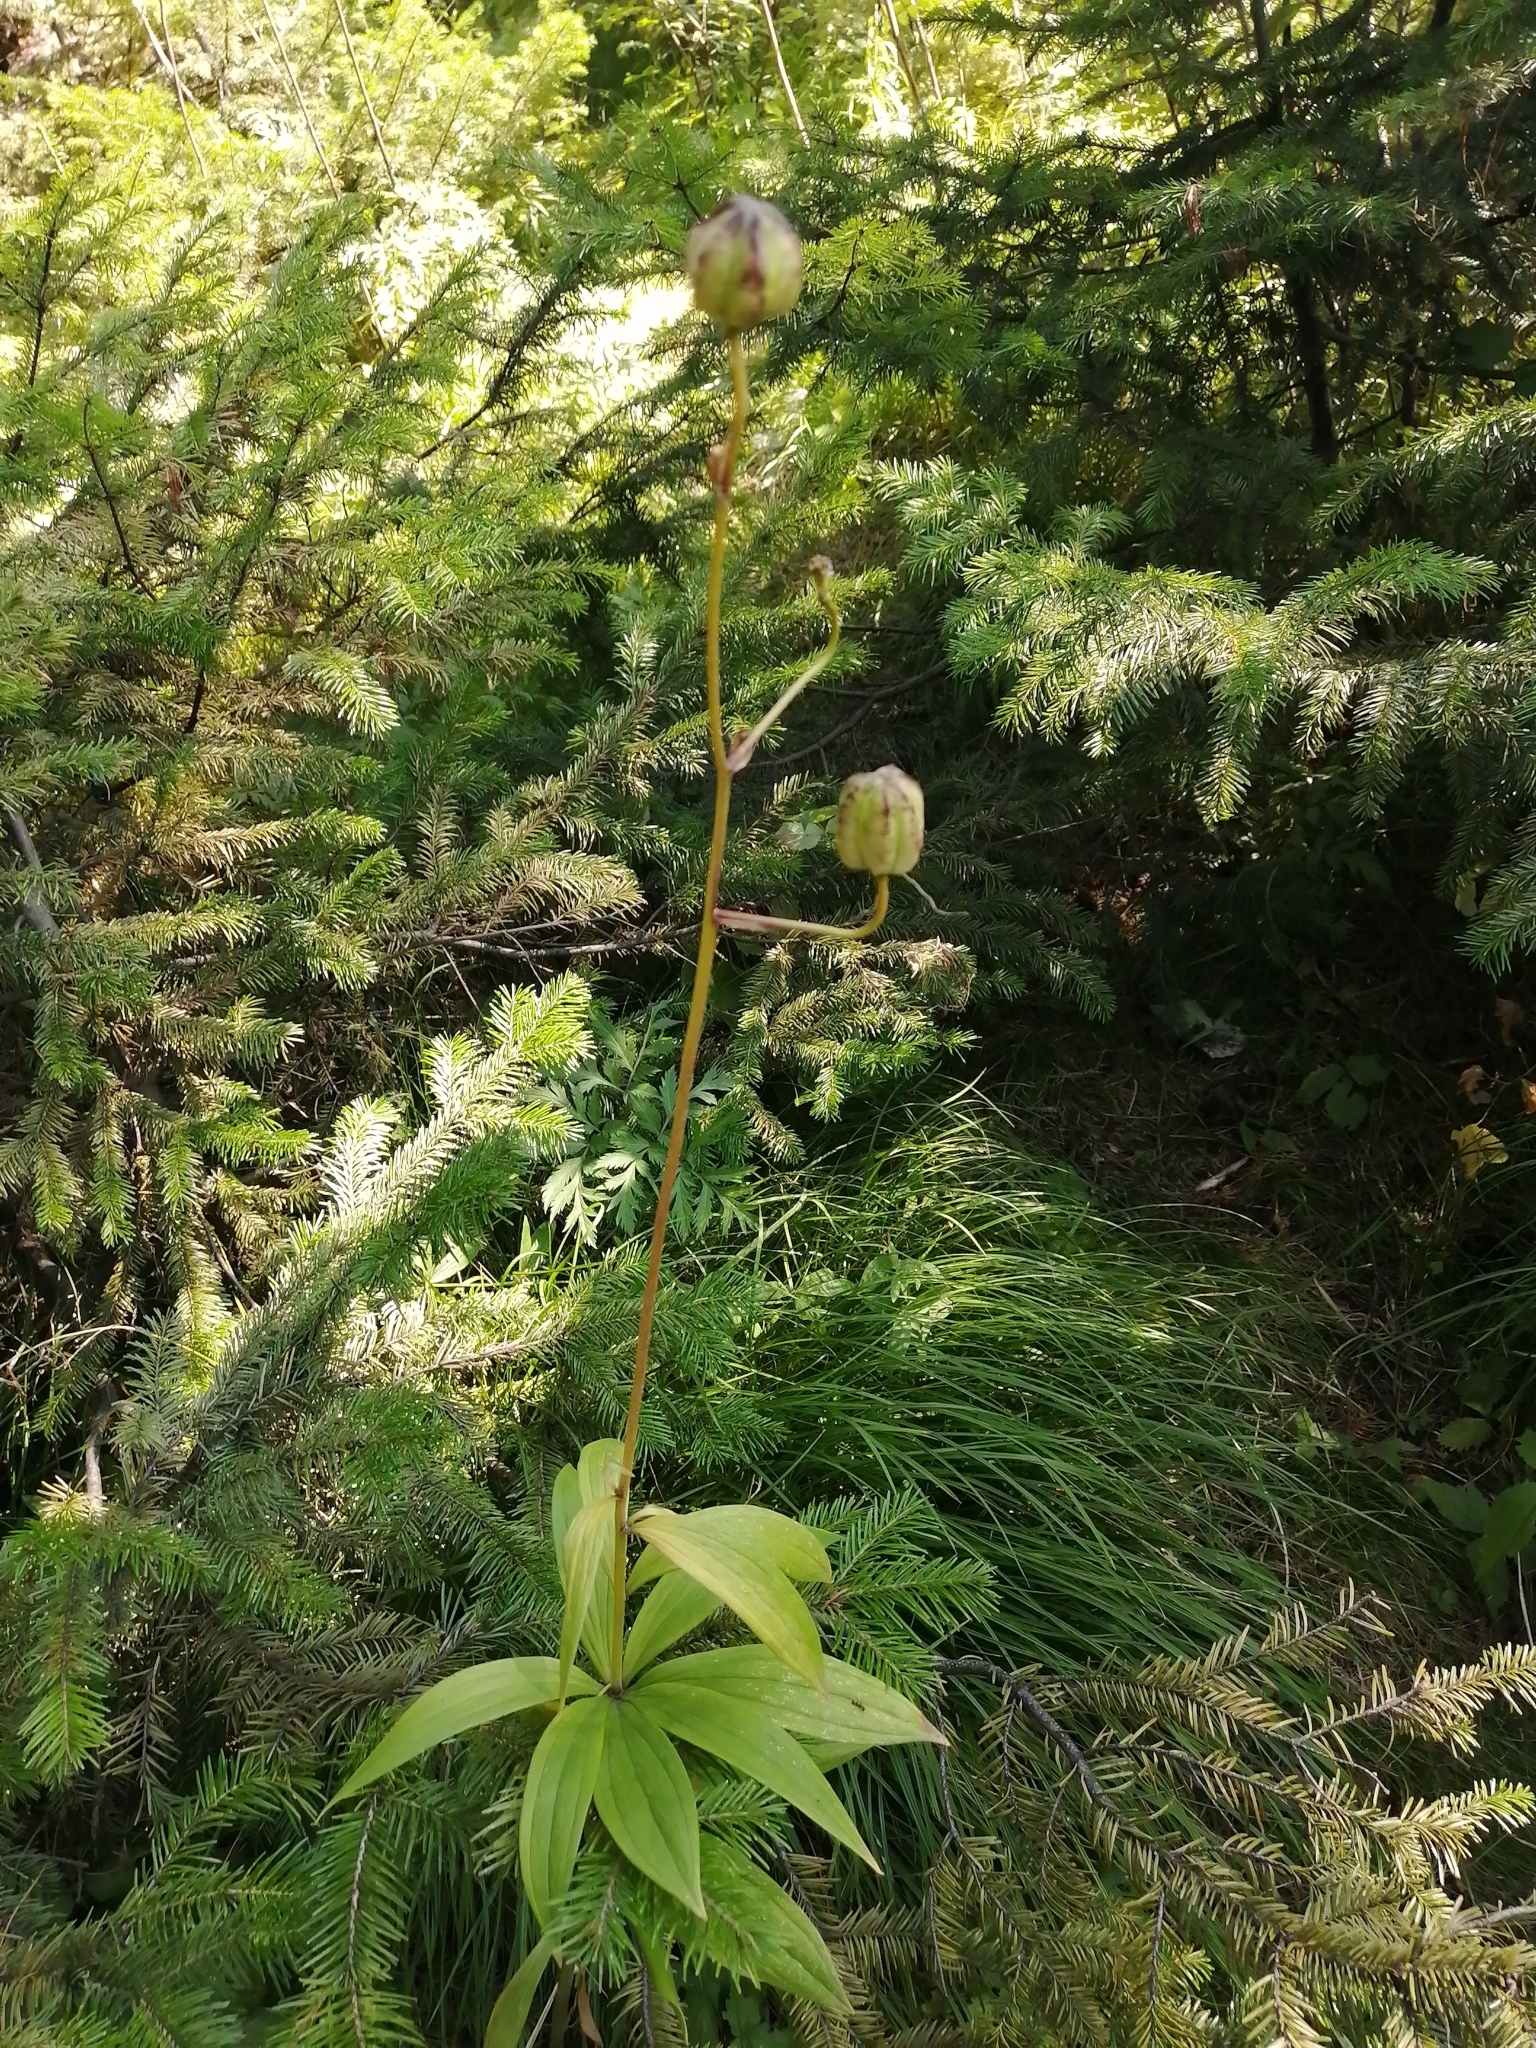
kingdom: Plantae
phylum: Tracheophyta
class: Liliopsida
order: Liliales
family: Liliaceae
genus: Lilium
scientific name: Lilium martagon
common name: Martagon lily
